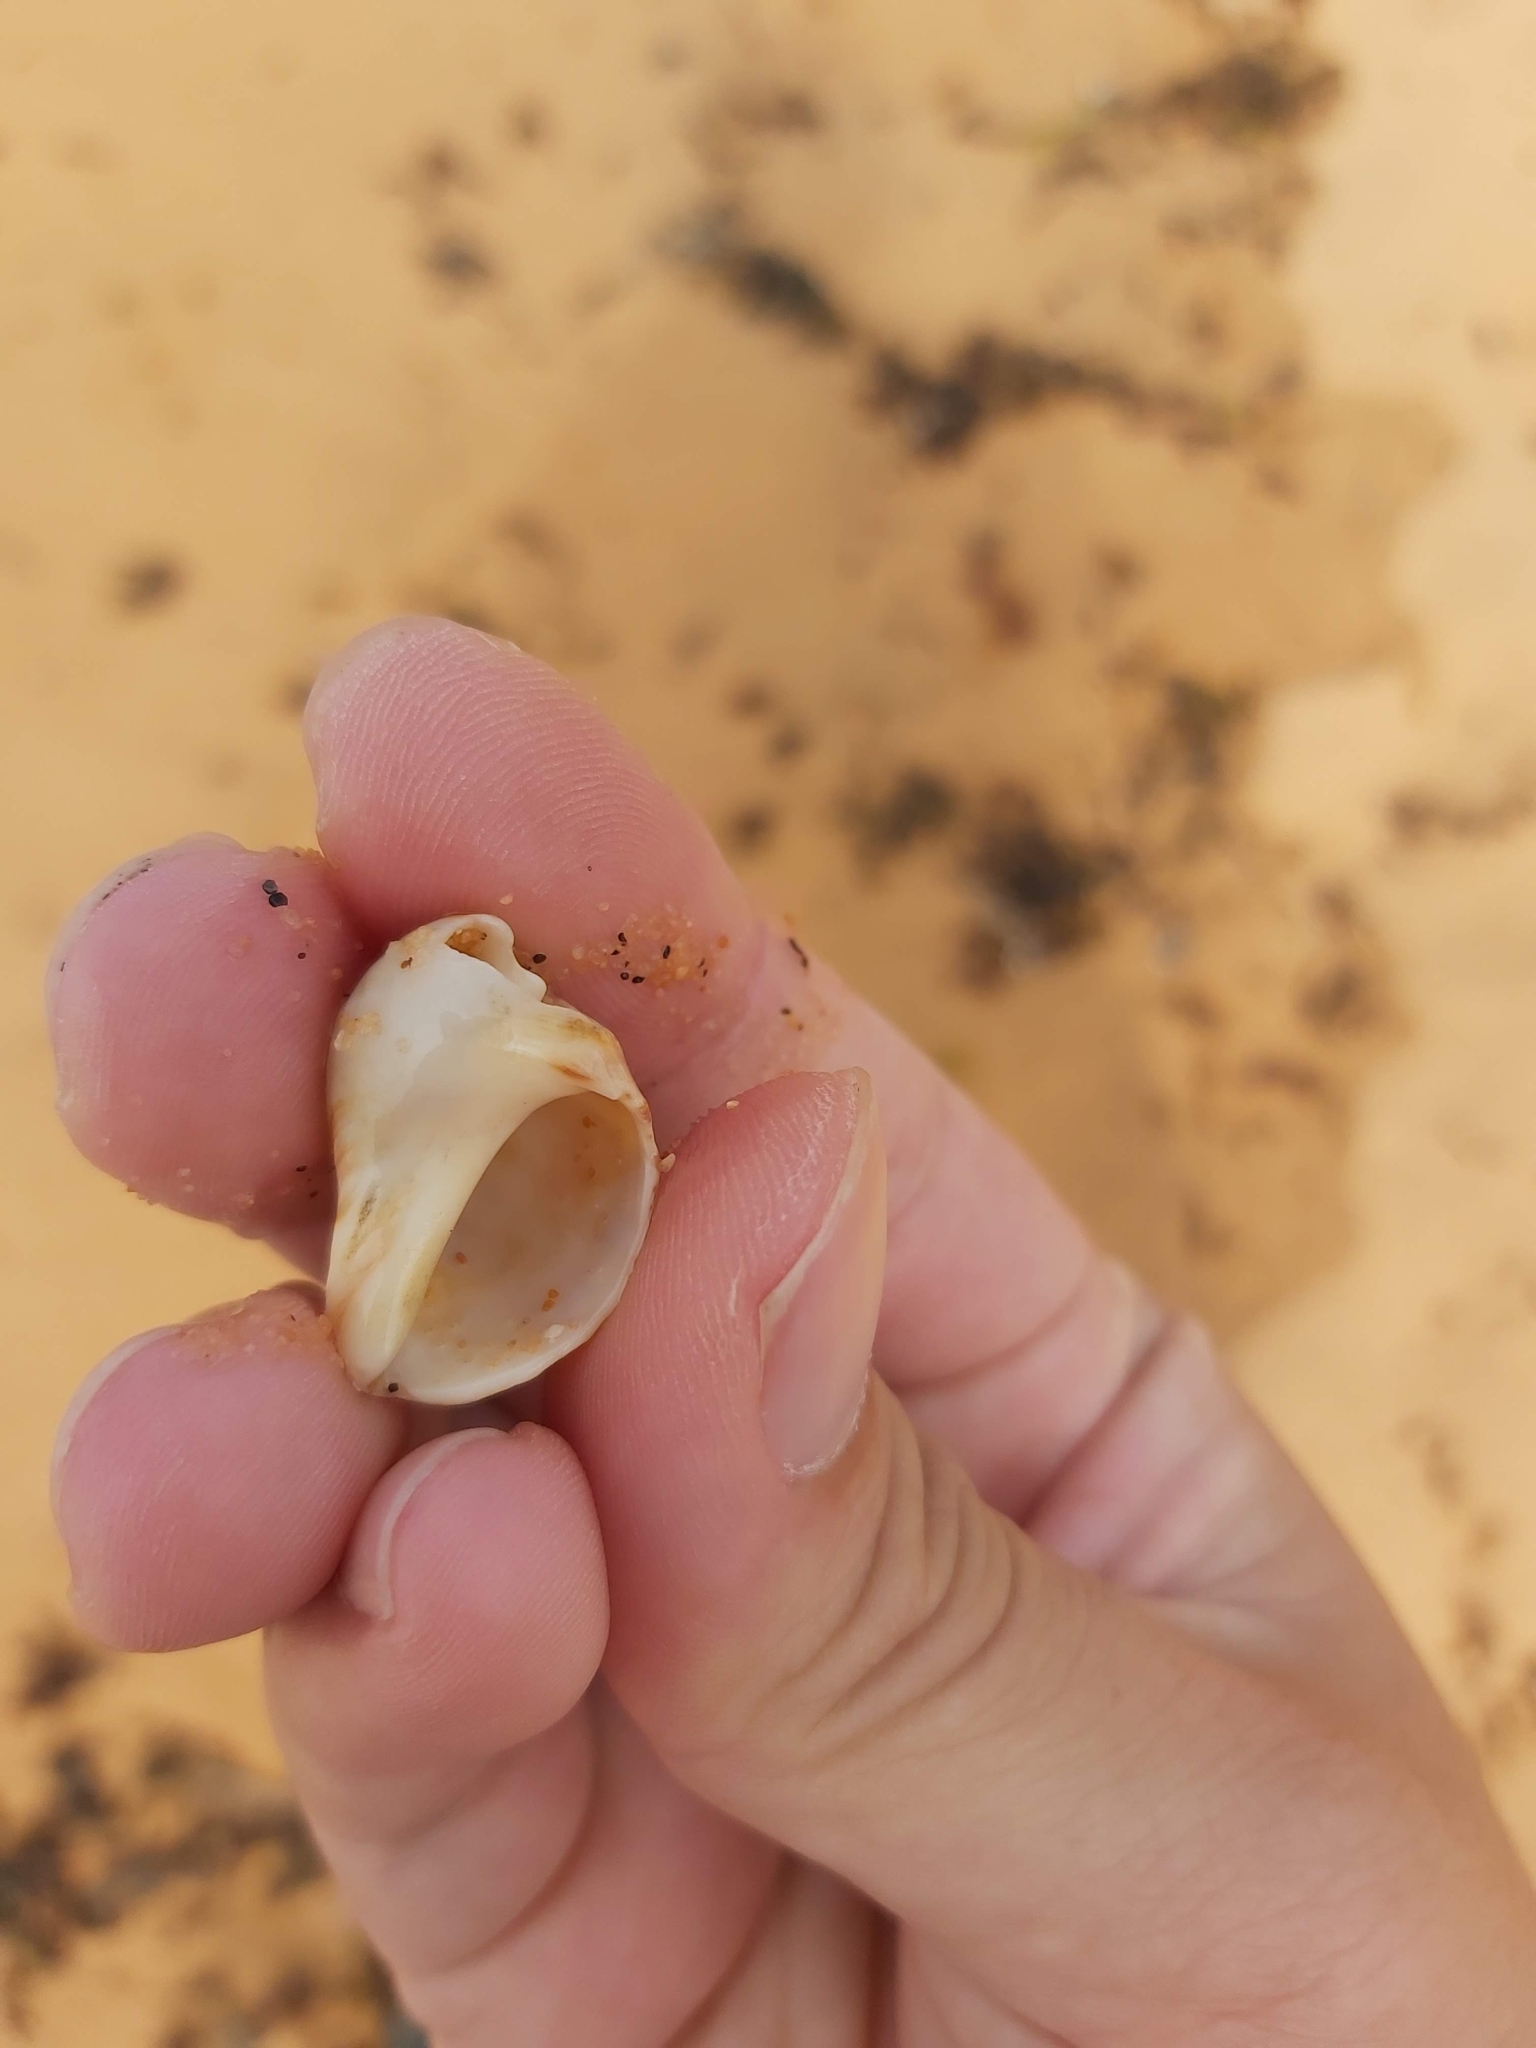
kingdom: Animalia
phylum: Mollusca
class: Gastropoda
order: Neogastropoda
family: Muricidae
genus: Dicathais
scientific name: Dicathais orbita
